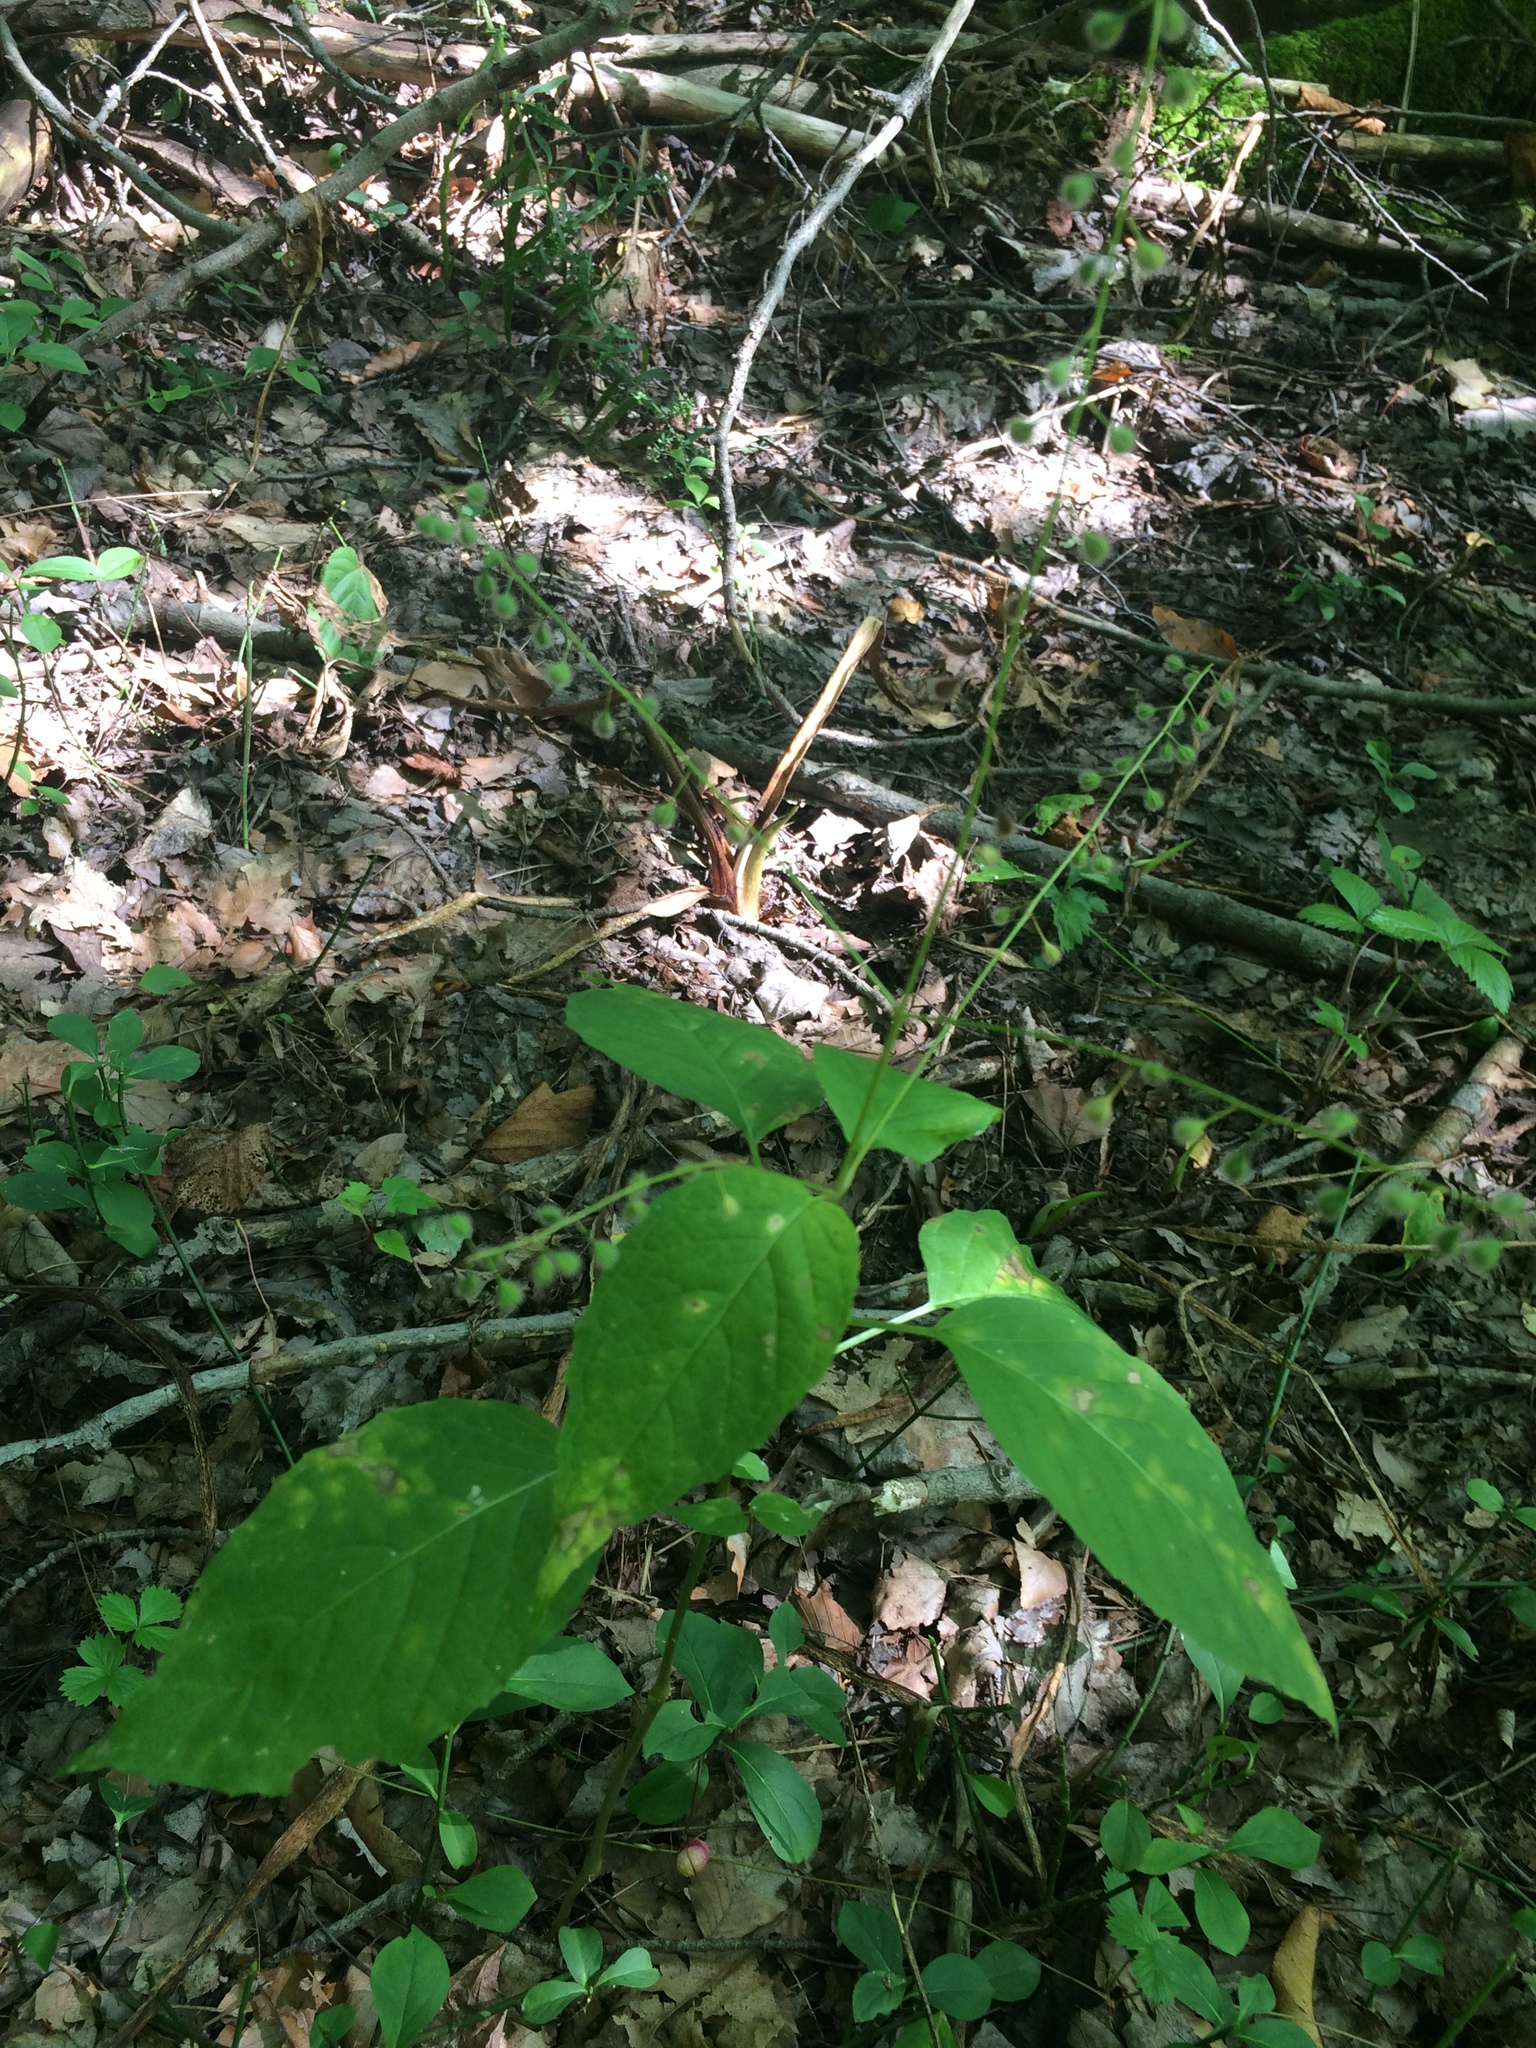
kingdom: Plantae
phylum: Tracheophyta
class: Magnoliopsida
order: Myrtales
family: Onagraceae
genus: Circaea
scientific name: Circaea canadensis
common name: Broad-leaved enchanter's nightshade
